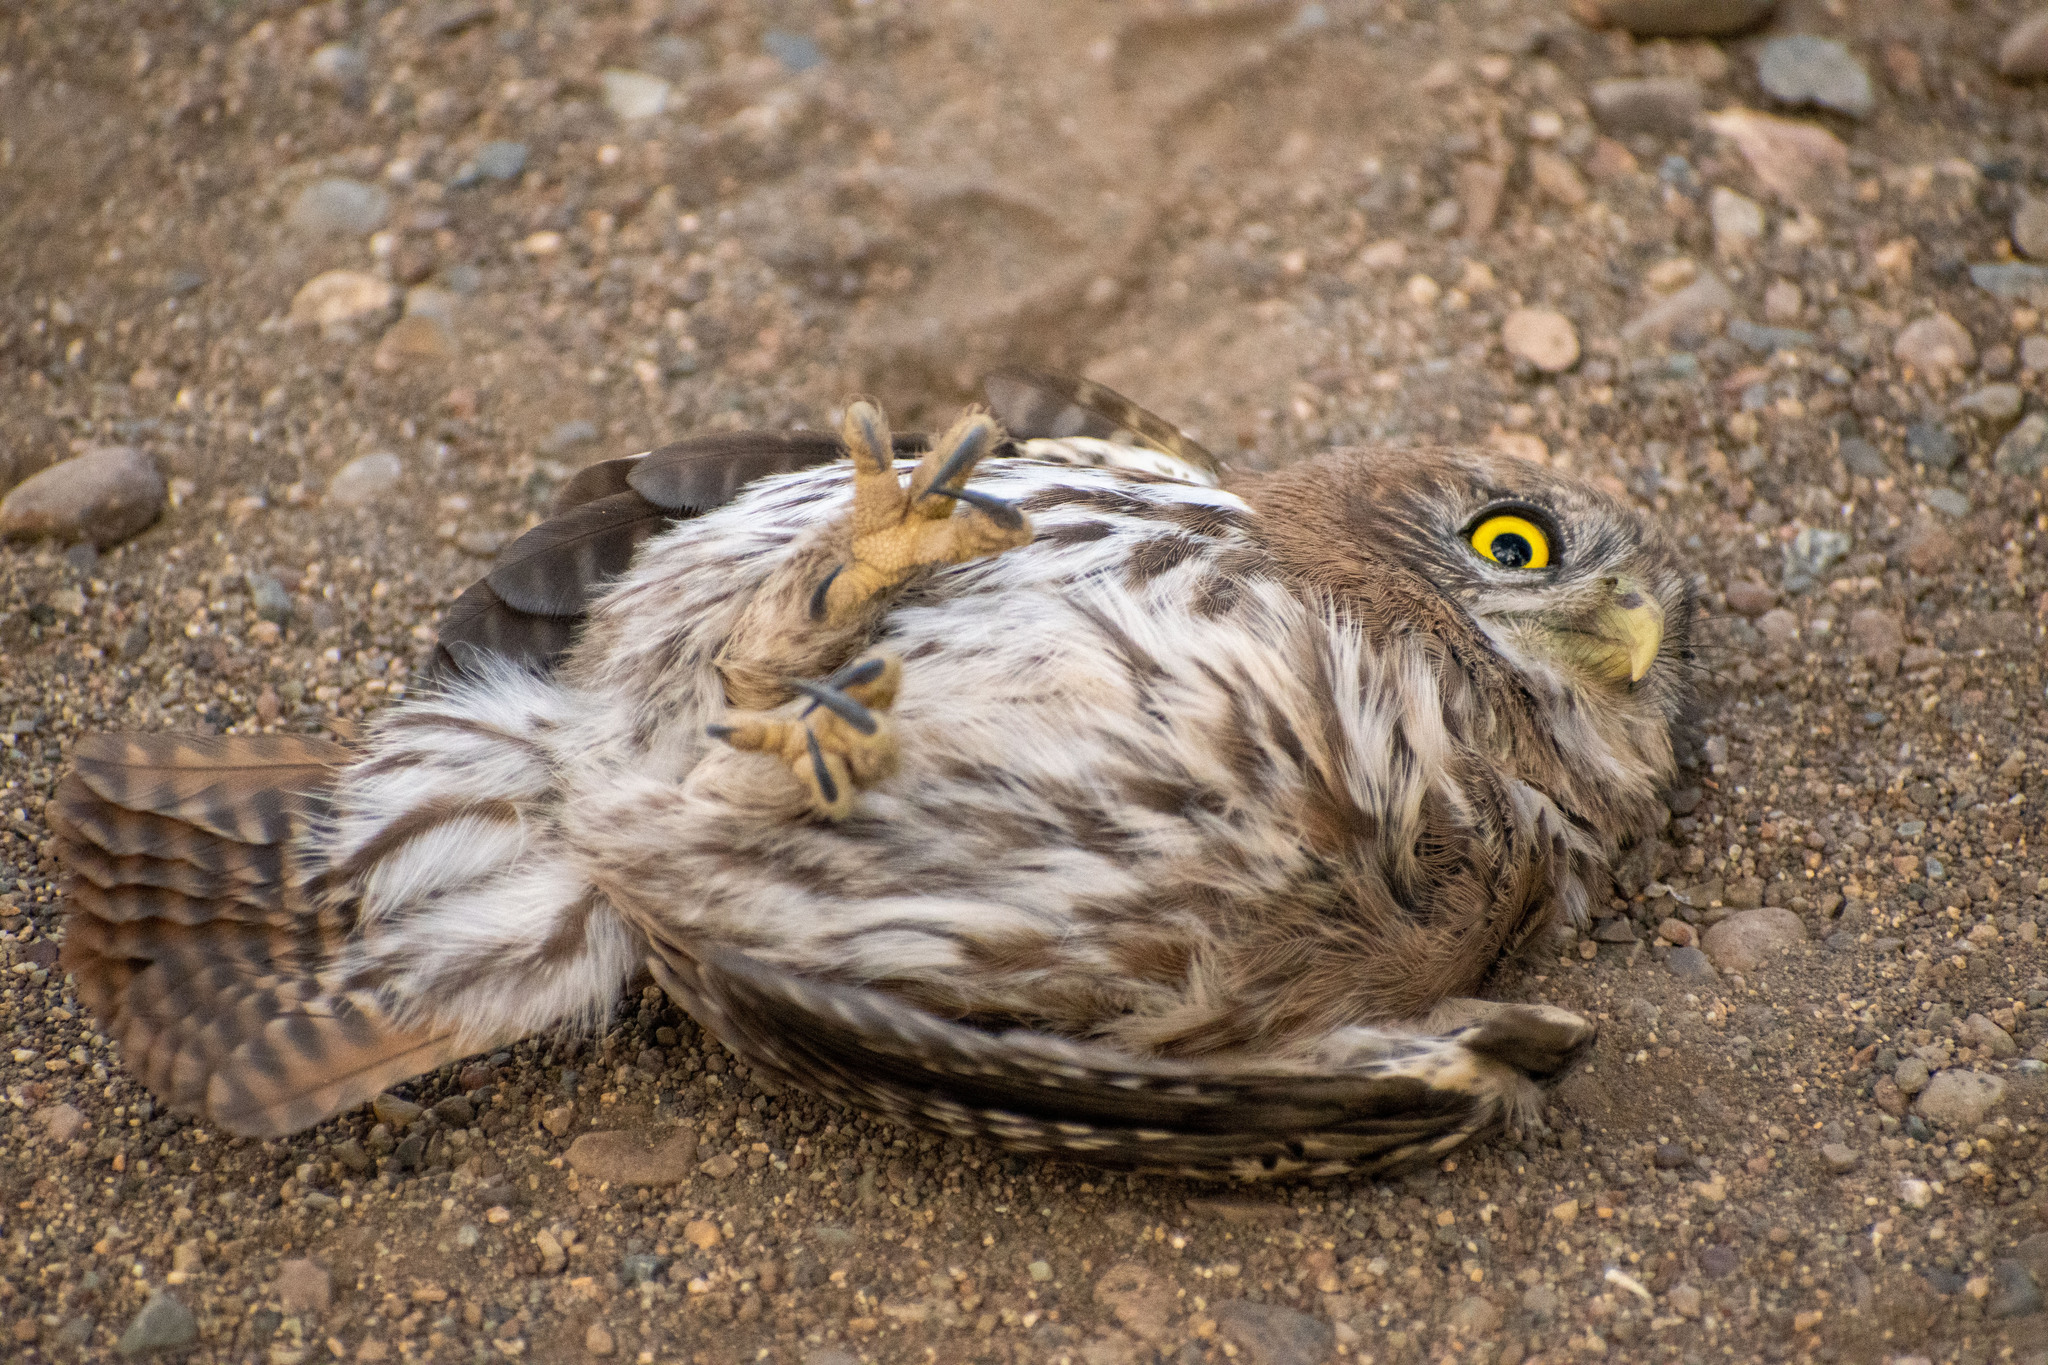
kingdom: Animalia
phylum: Chordata
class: Aves
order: Strigiformes
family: Strigidae
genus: Glaucidium
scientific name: Glaucidium nana
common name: Austral pygmy-owl
